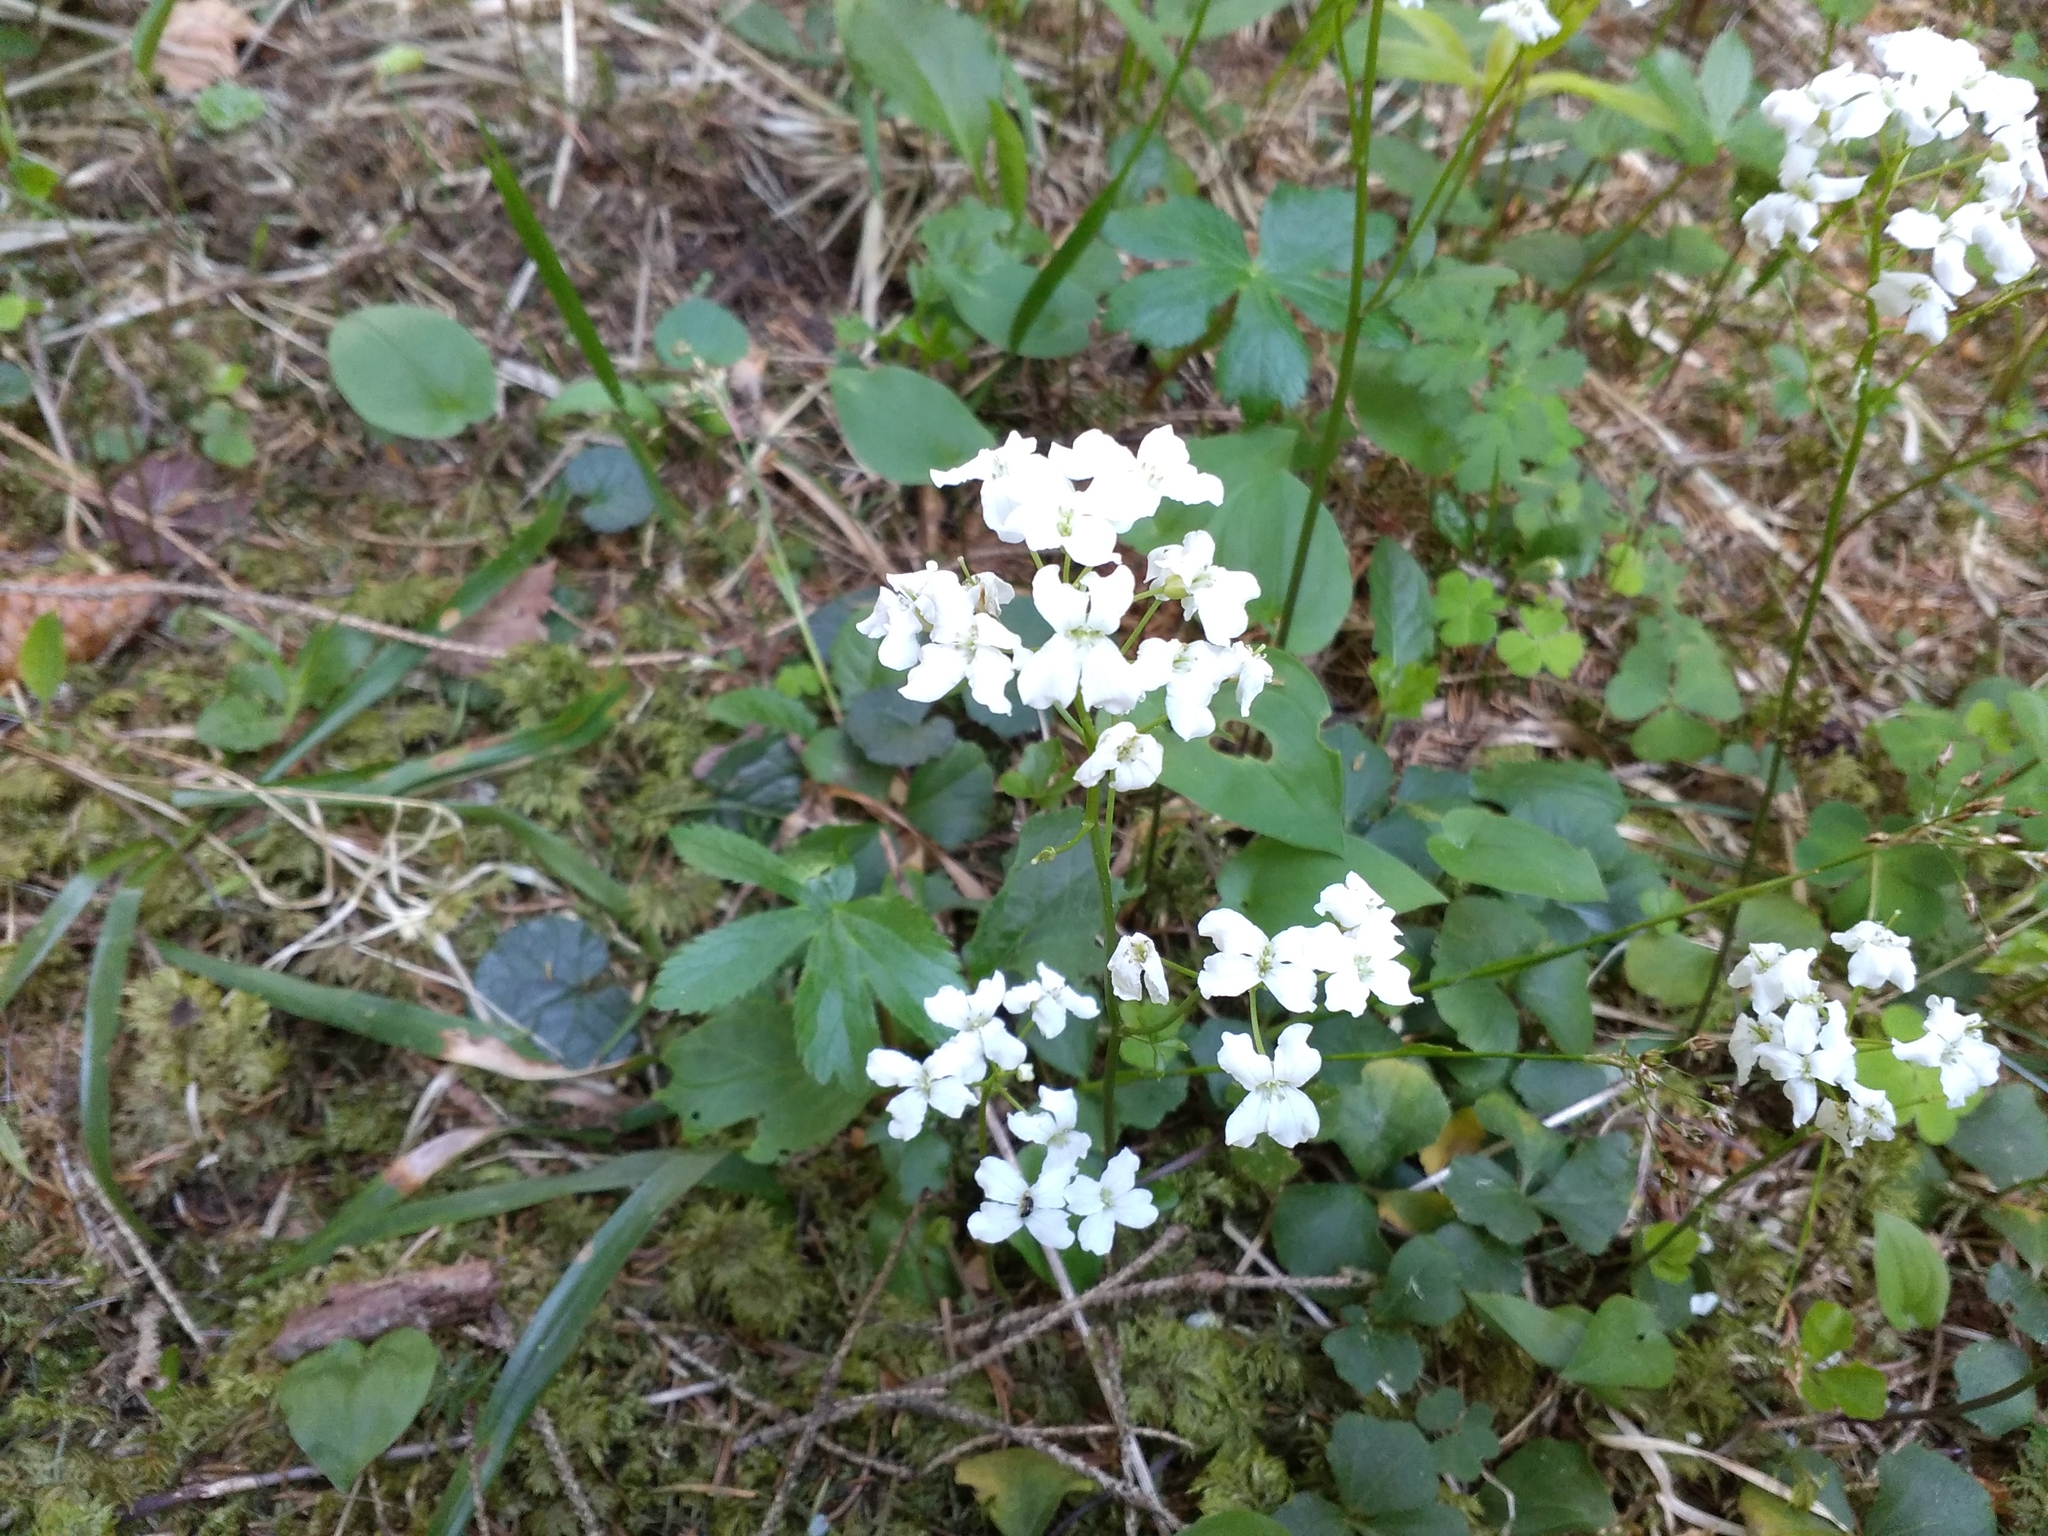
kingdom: Plantae
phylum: Tracheophyta
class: Magnoliopsida
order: Brassicales
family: Brassicaceae
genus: Cardamine
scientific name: Cardamine trifolia
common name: Trefoil cress
